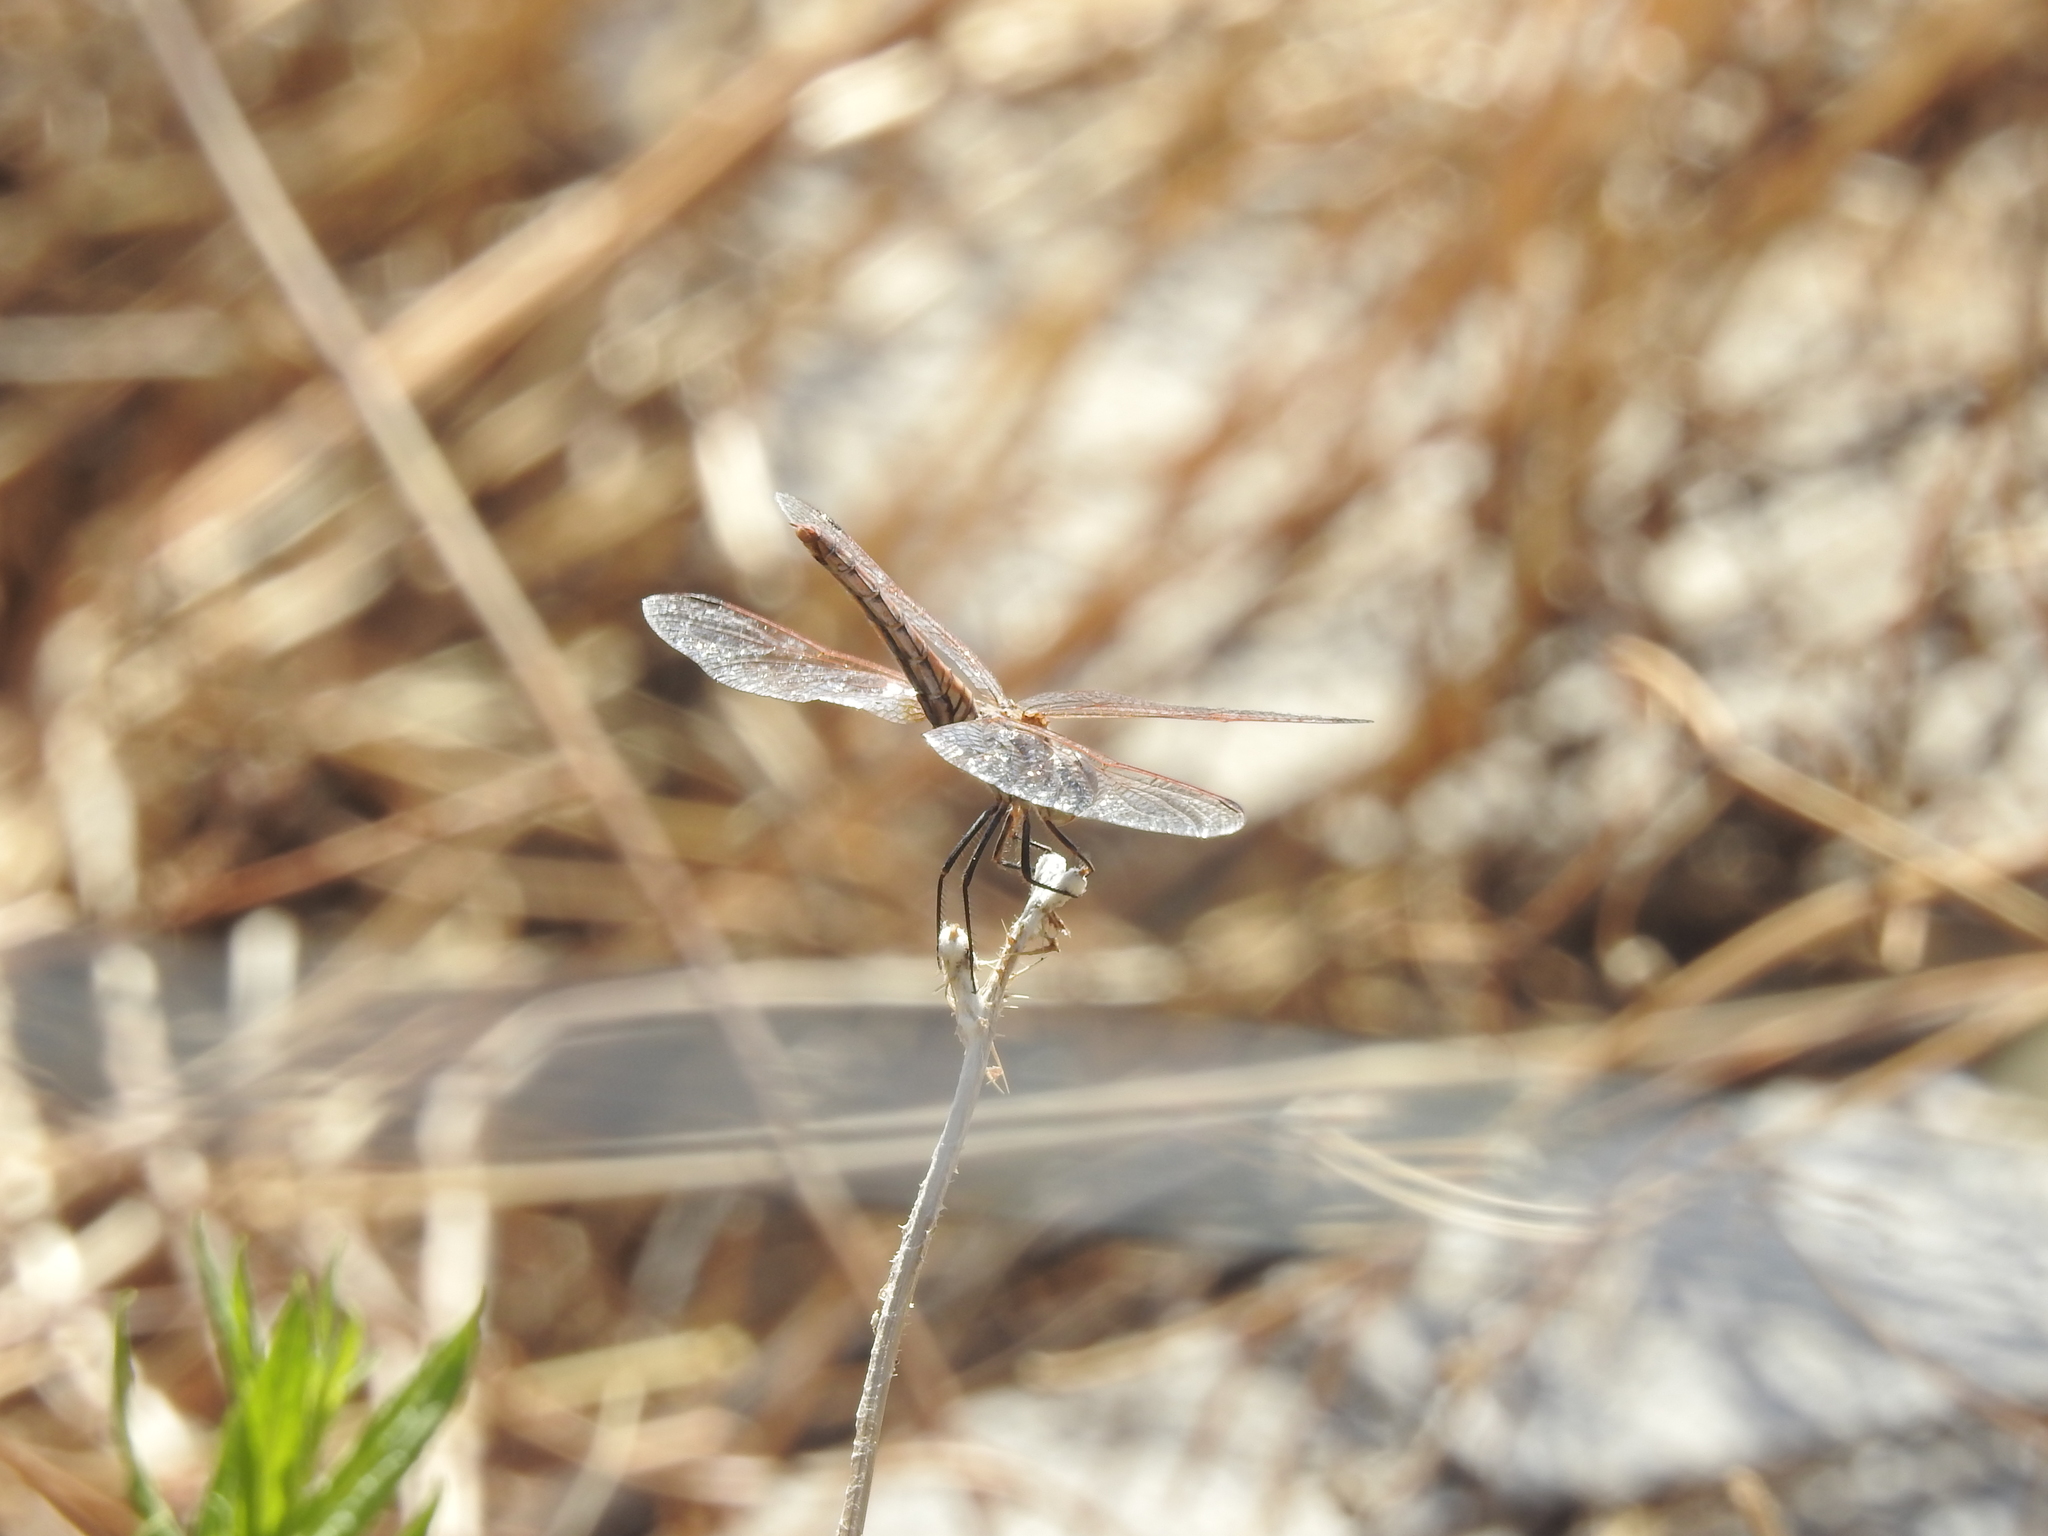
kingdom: Animalia
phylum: Arthropoda
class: Insecta
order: Odonata
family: Libellulidae
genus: Trithemis
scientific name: Trithemis annulata
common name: Violet dropwing
